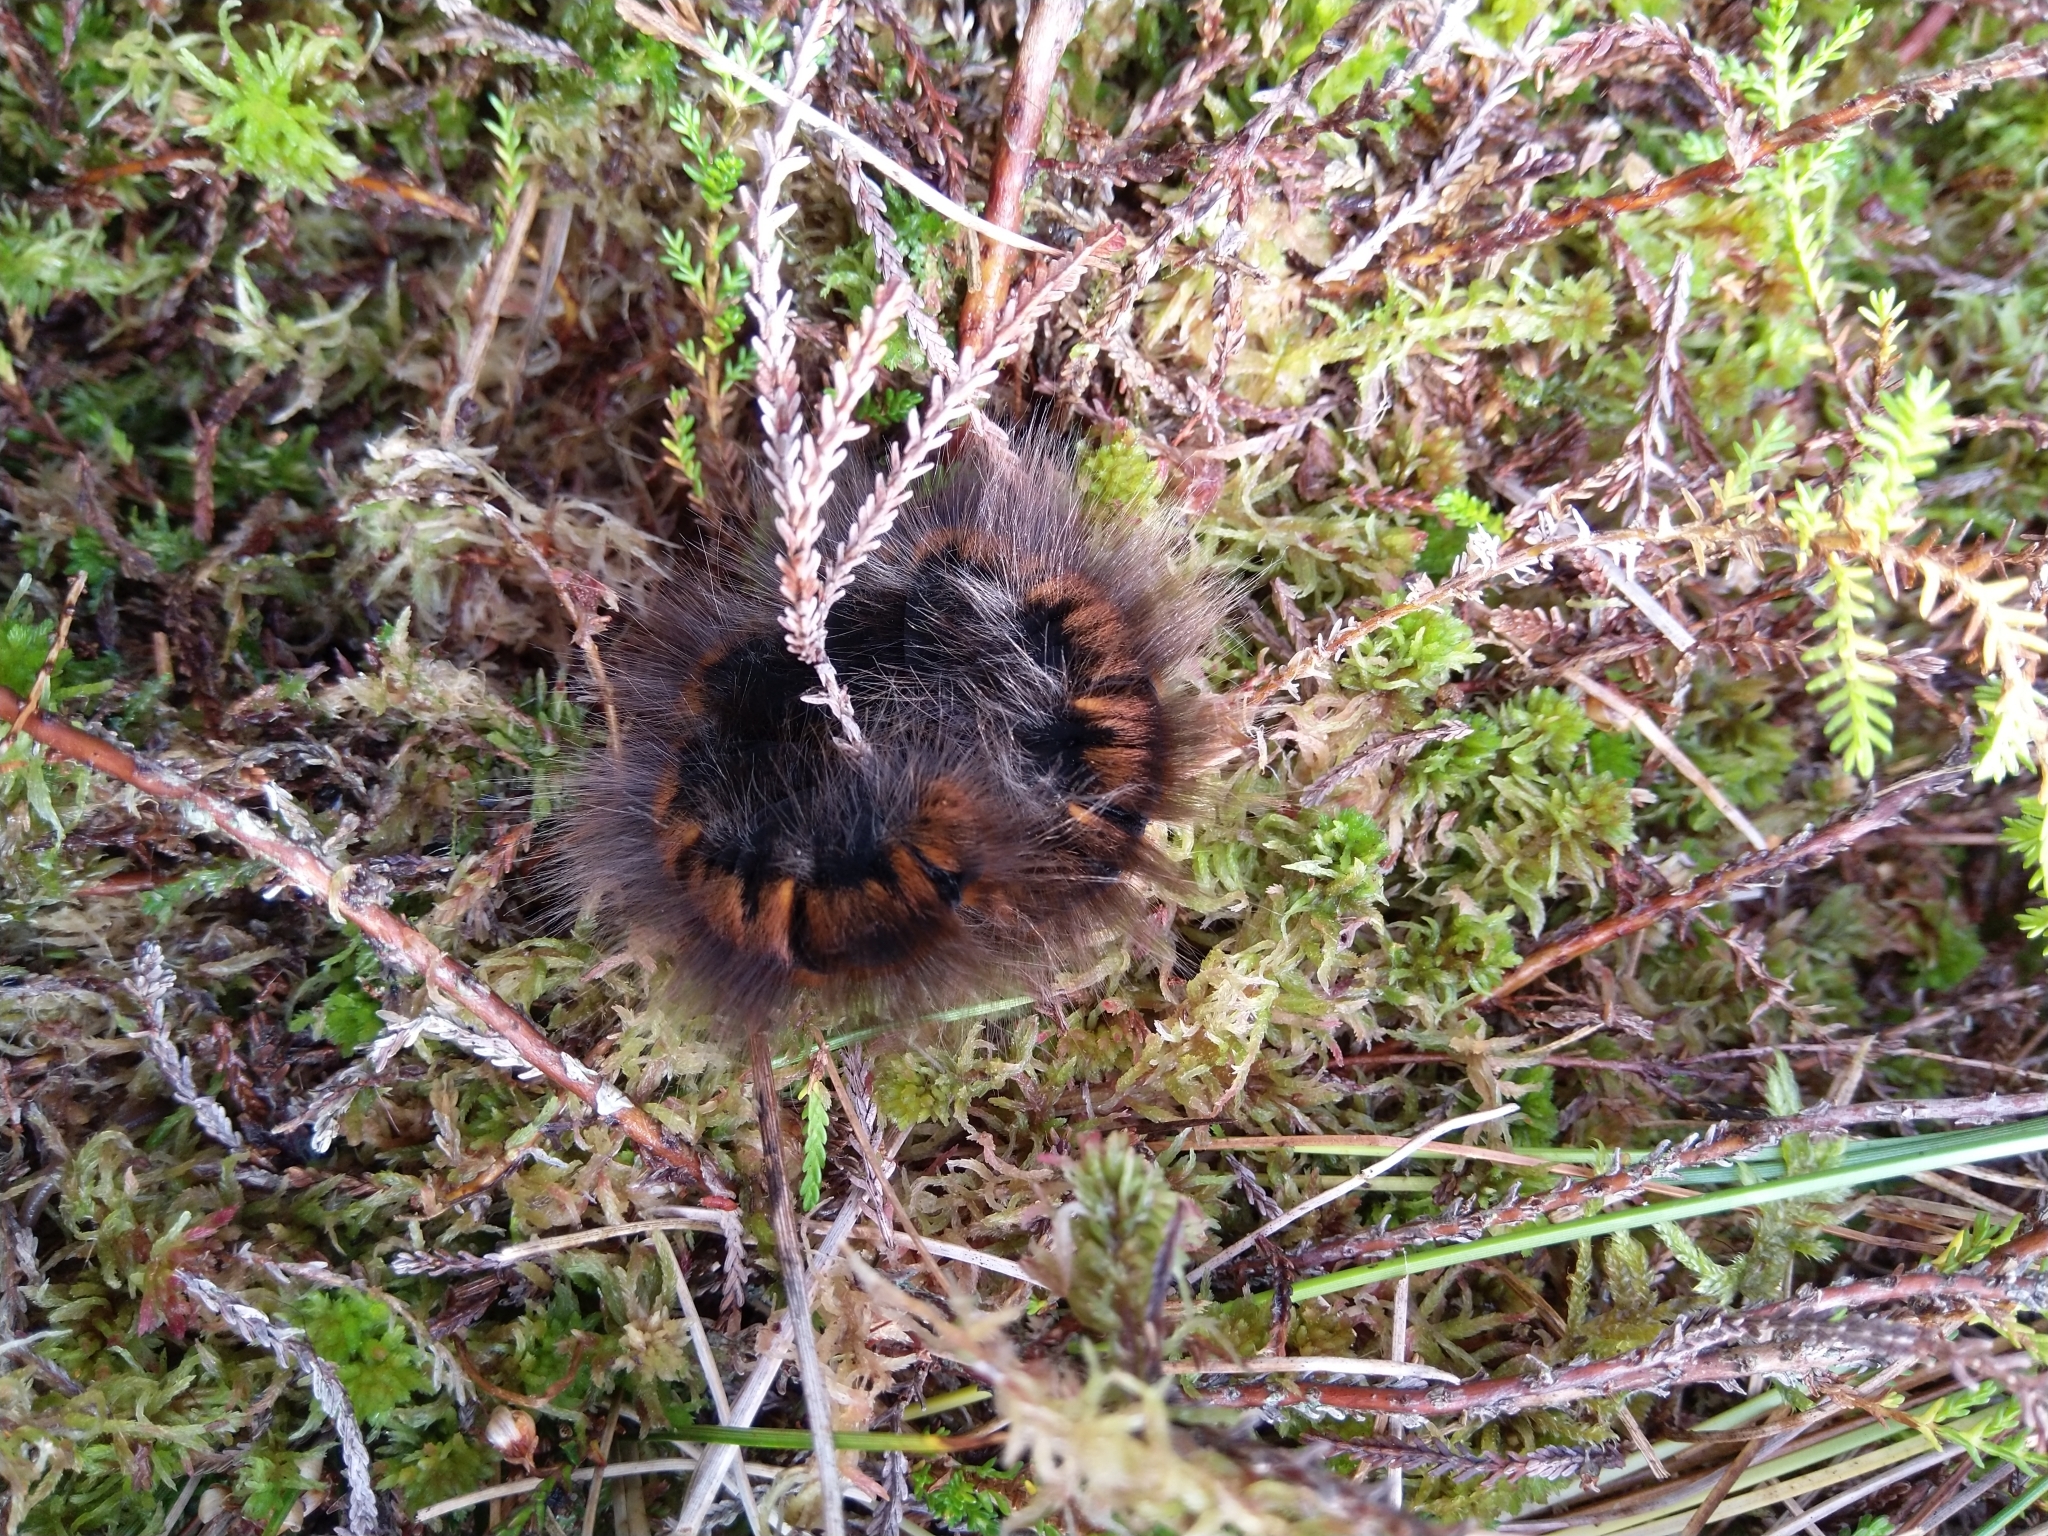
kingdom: Animalia
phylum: Arthropoda
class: Insecta
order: Lepidoptera
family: Lasiocampidae
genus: Macrothylacia
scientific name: Macrothylacia rubi
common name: Fox moth
